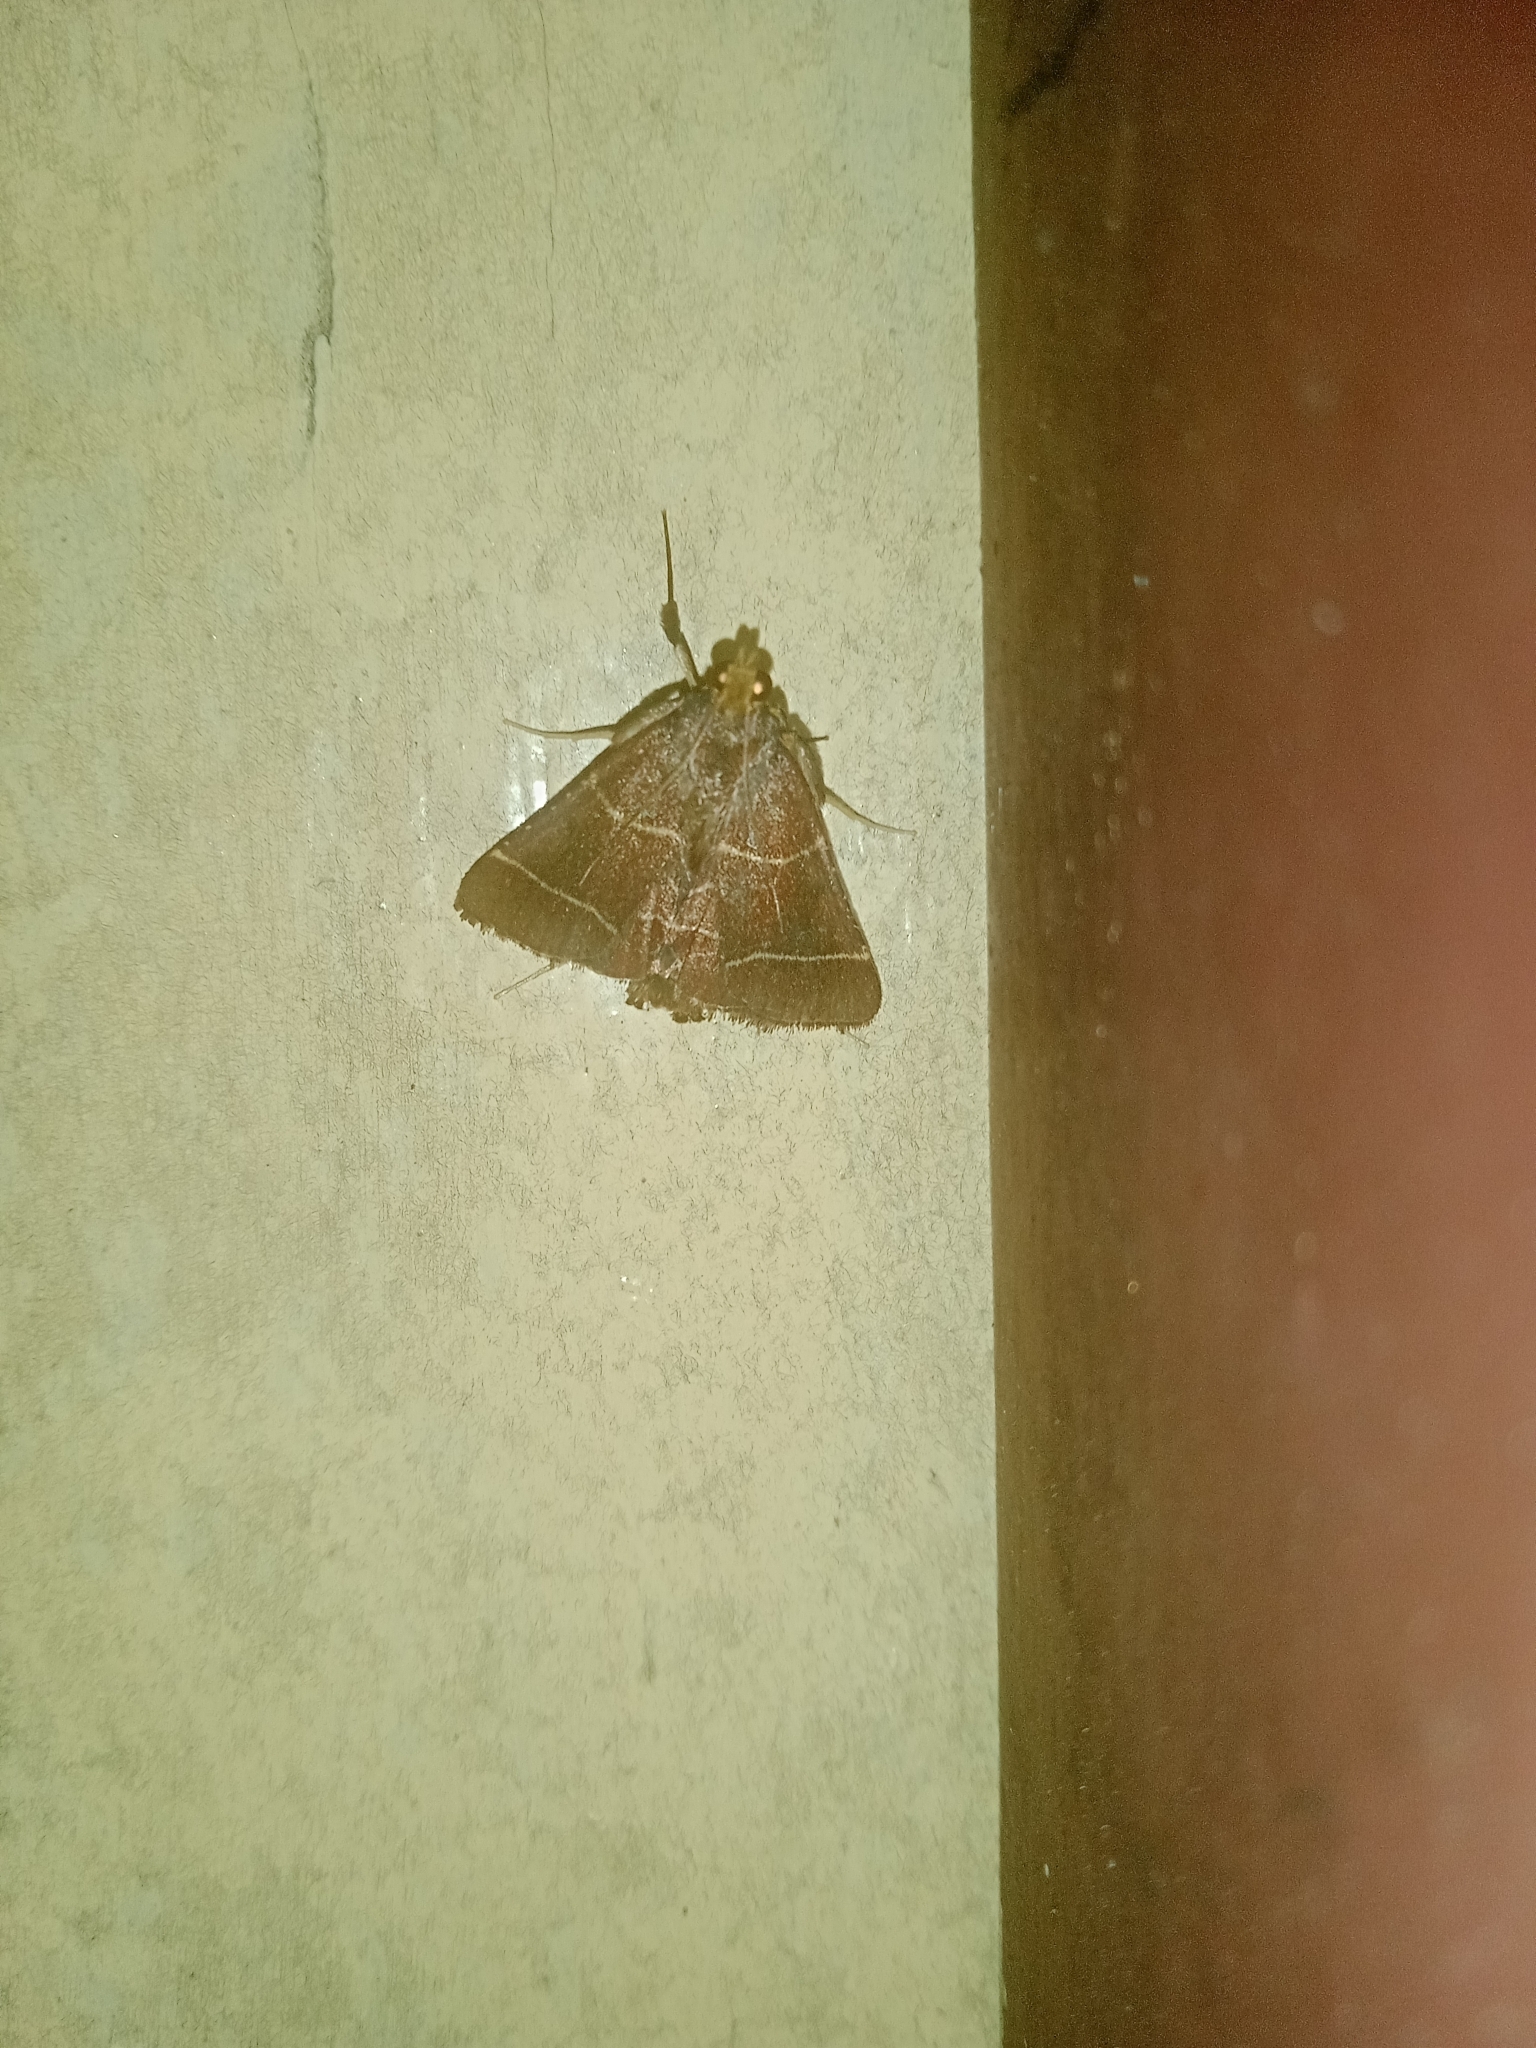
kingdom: Animalia
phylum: Arthropoda
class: Insecta
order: Lepidoptera
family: Pyralidae
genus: Zitha
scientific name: Zitha tactilis
